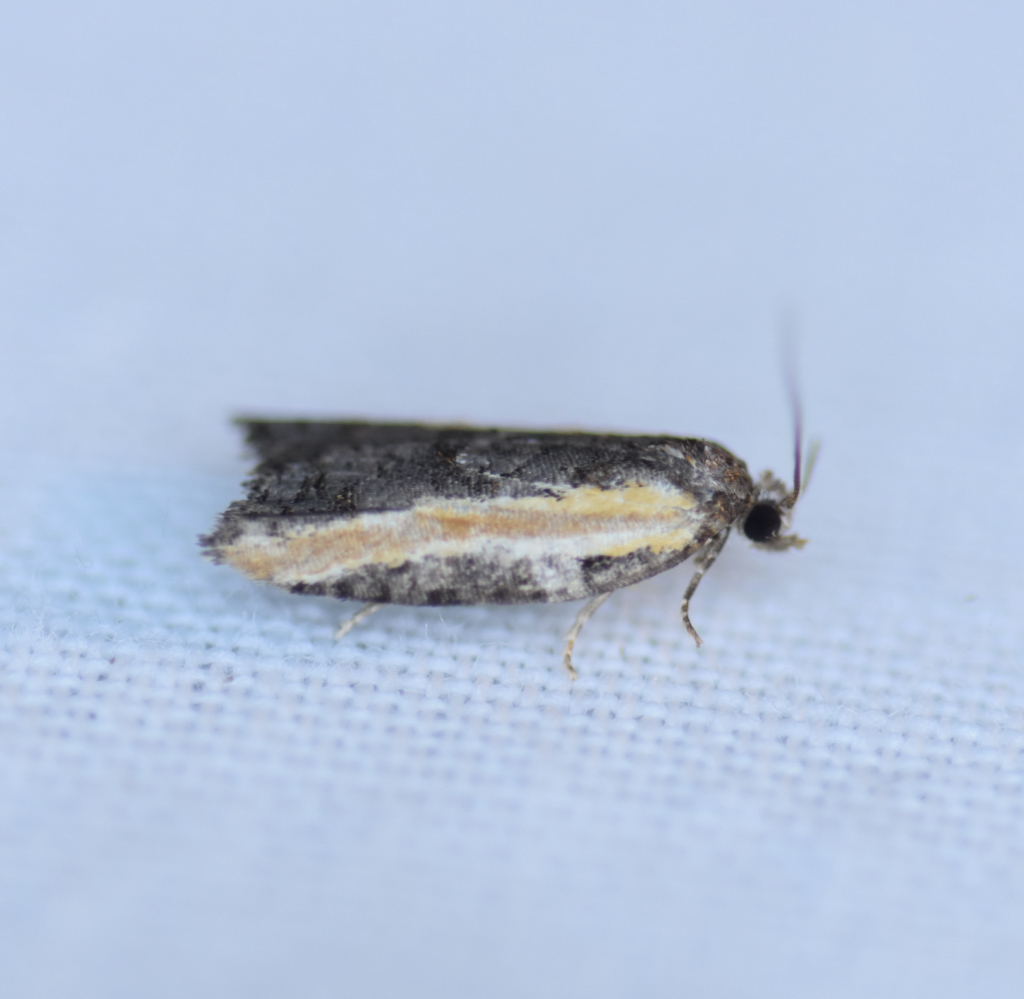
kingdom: Animalia
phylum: Arthropoda
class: Insecta
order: Lepidoptera
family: Tortricidae
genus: Acleris
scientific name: Acleris variana
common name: Eastern black-headed budworm moth
